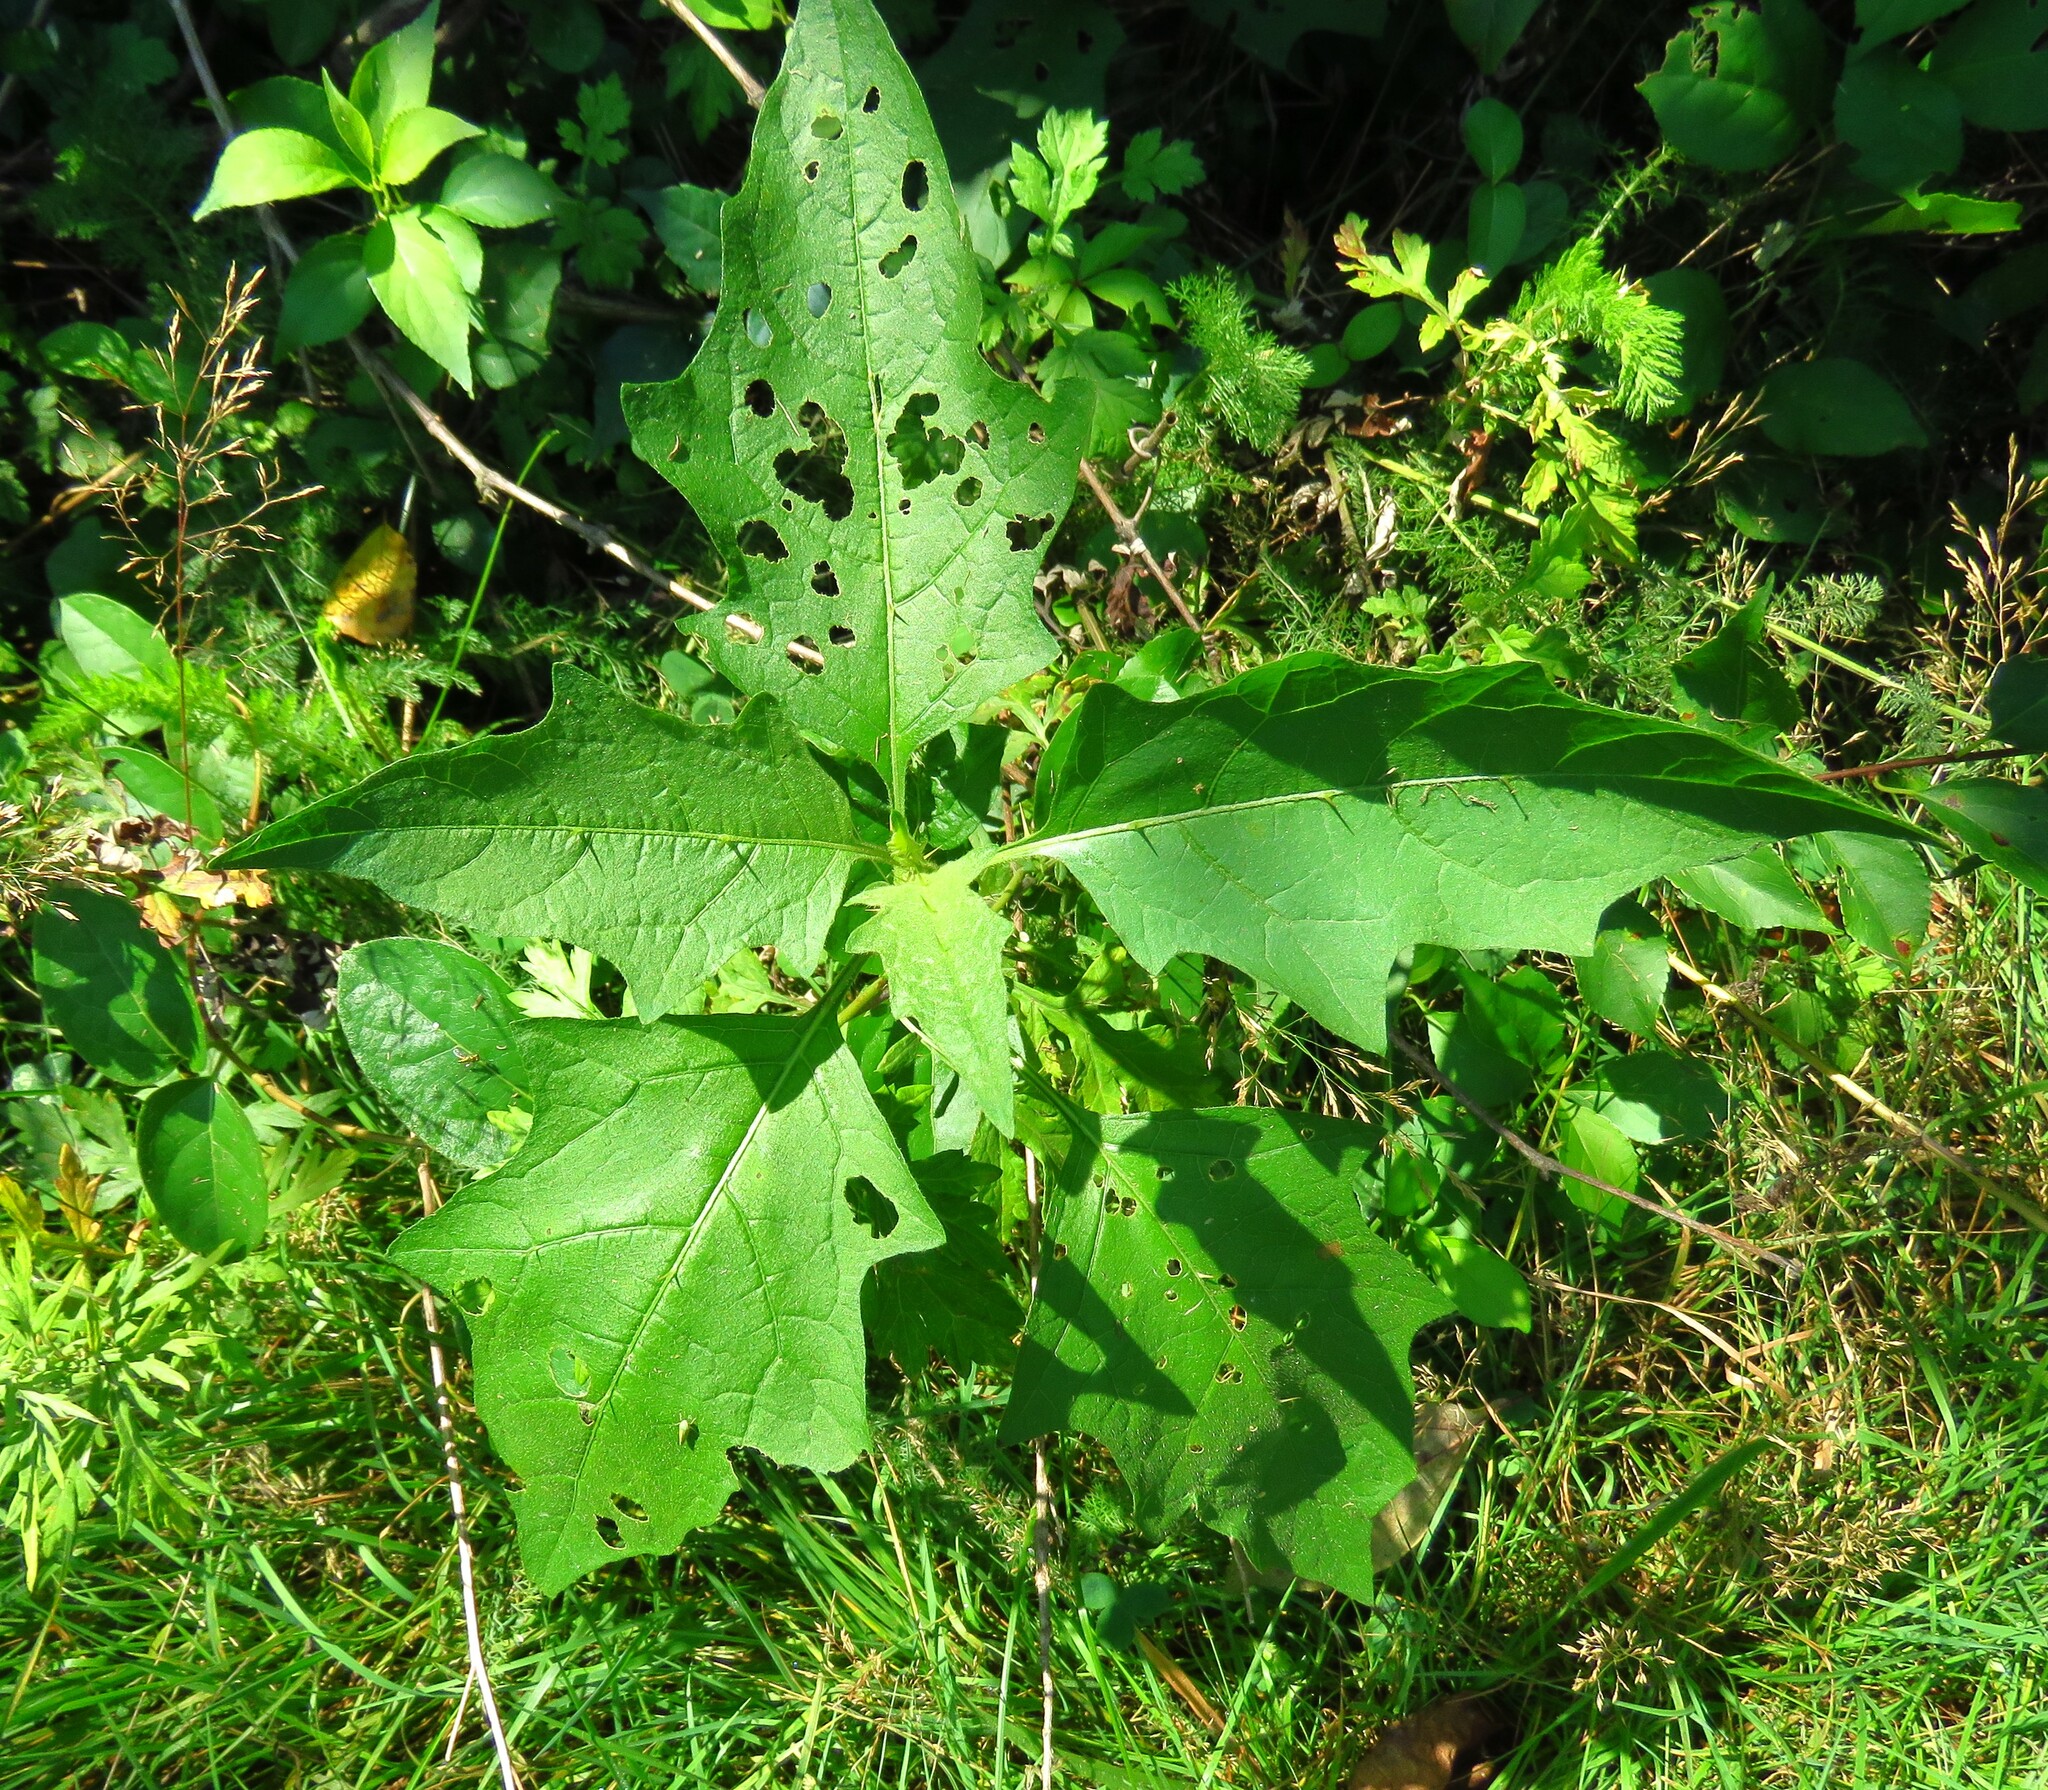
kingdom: Plantae
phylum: Tracheophyta
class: Magnoliopsida
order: Solanales
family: Solanaceae
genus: Solanum
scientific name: Solanum carolinense
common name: Horse-nettle
